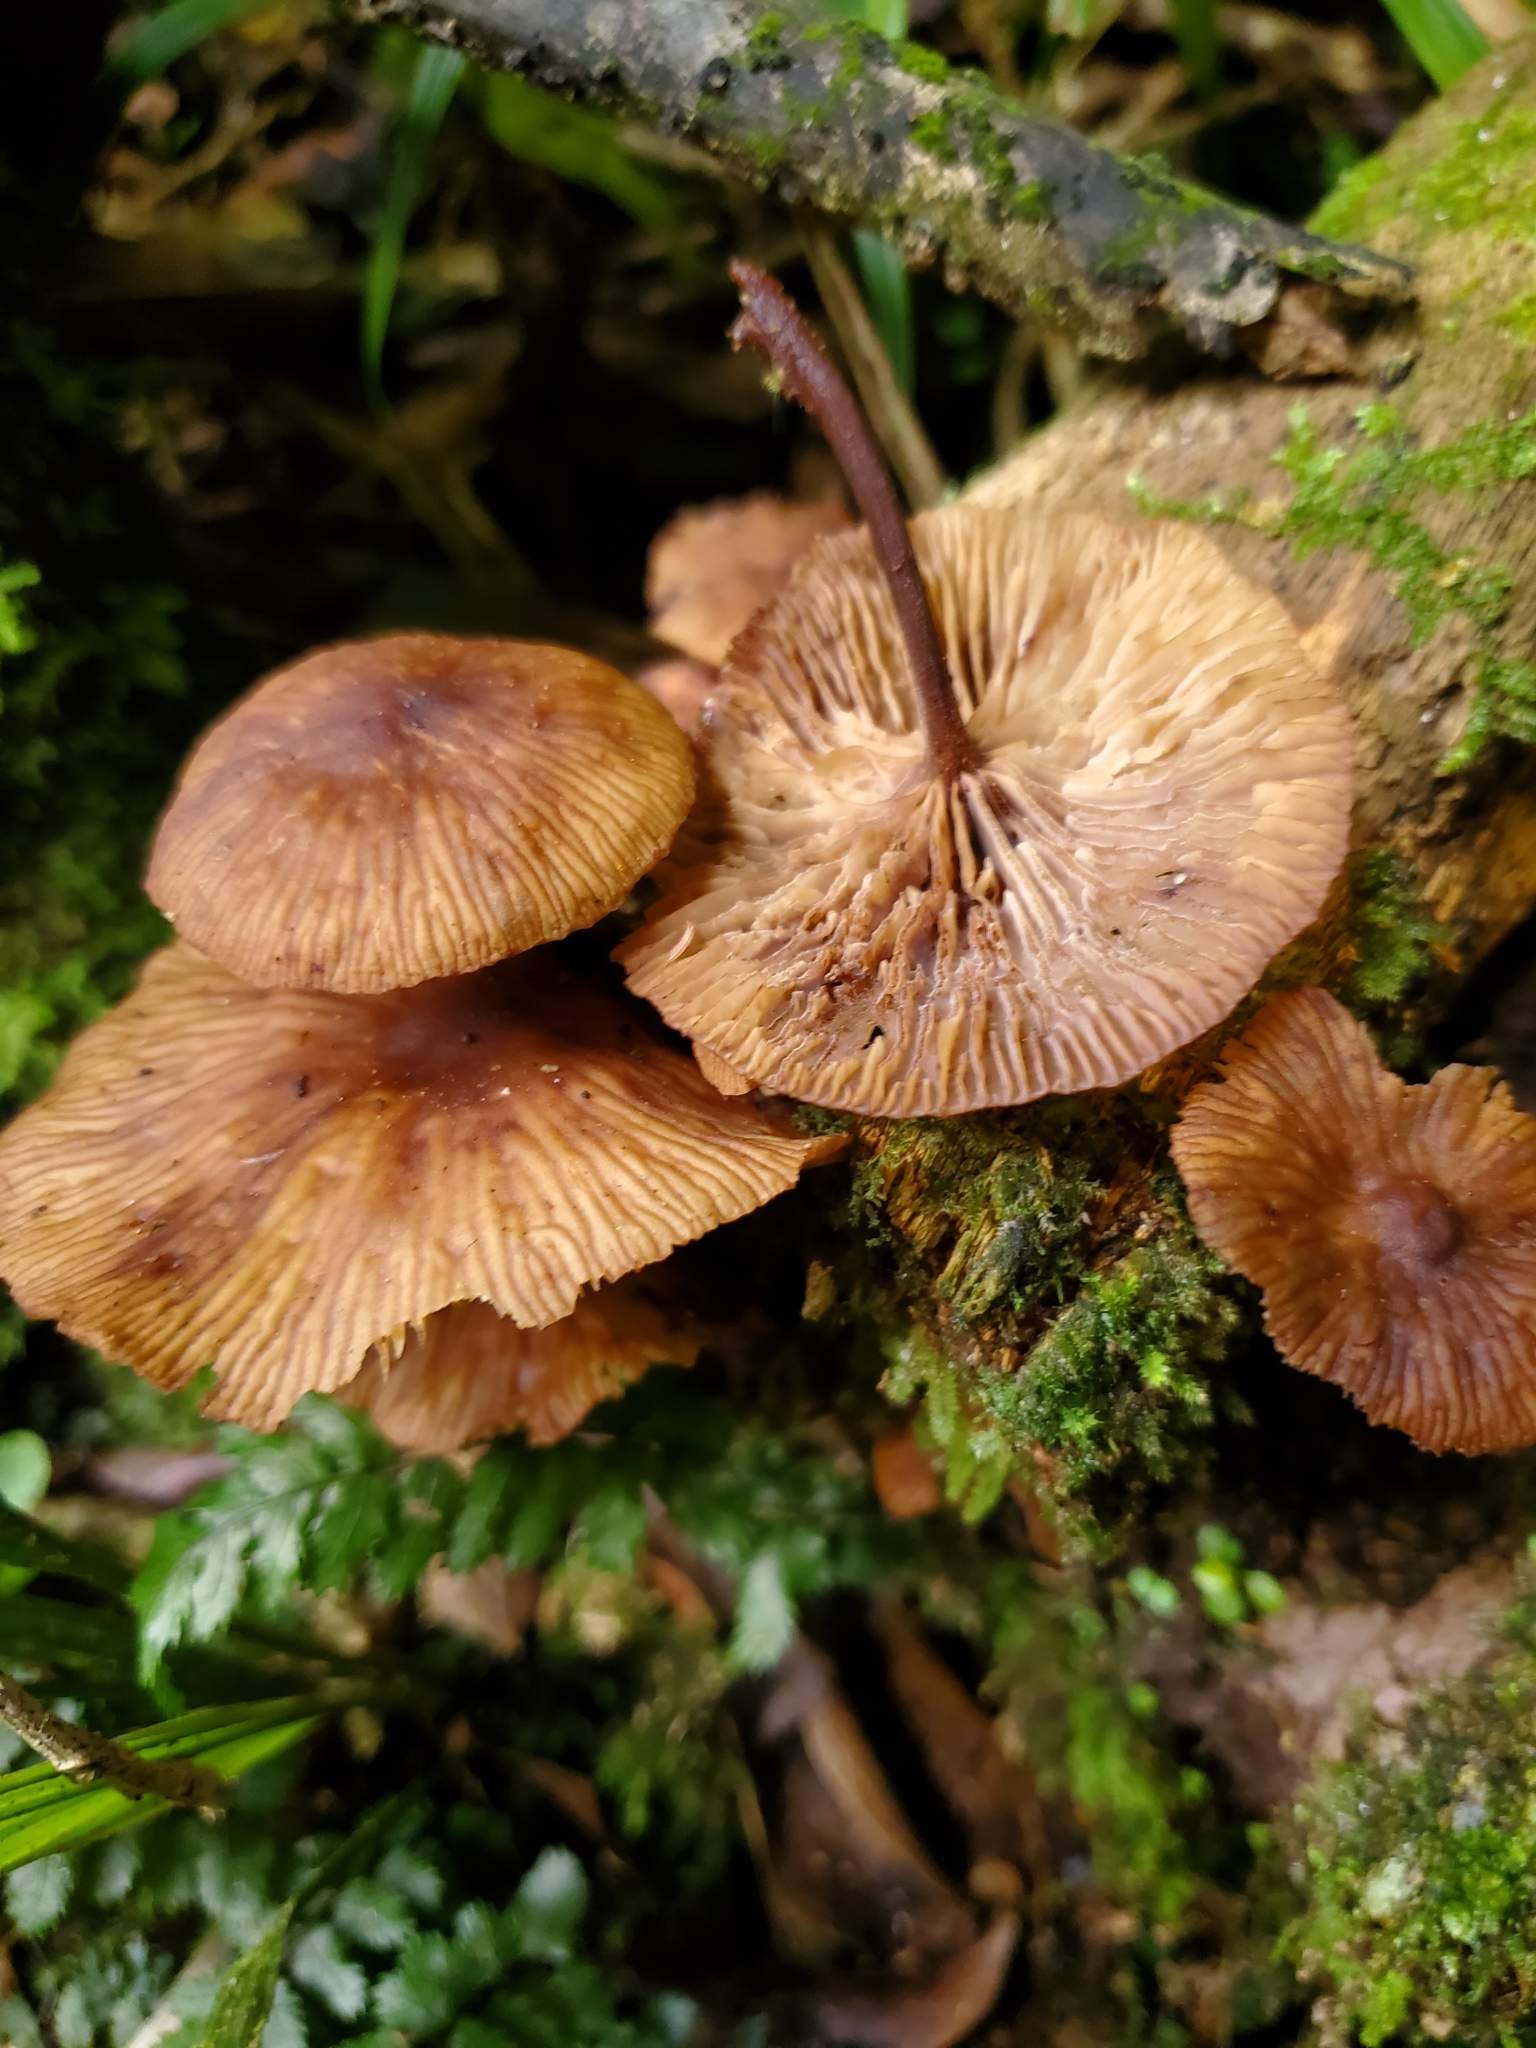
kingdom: Fungi
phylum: Basidiomycota
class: Agaricomycetes
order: Agaricales
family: Omphalotaceae
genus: Collybiopsis
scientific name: Collybiopsis subpruinosa
